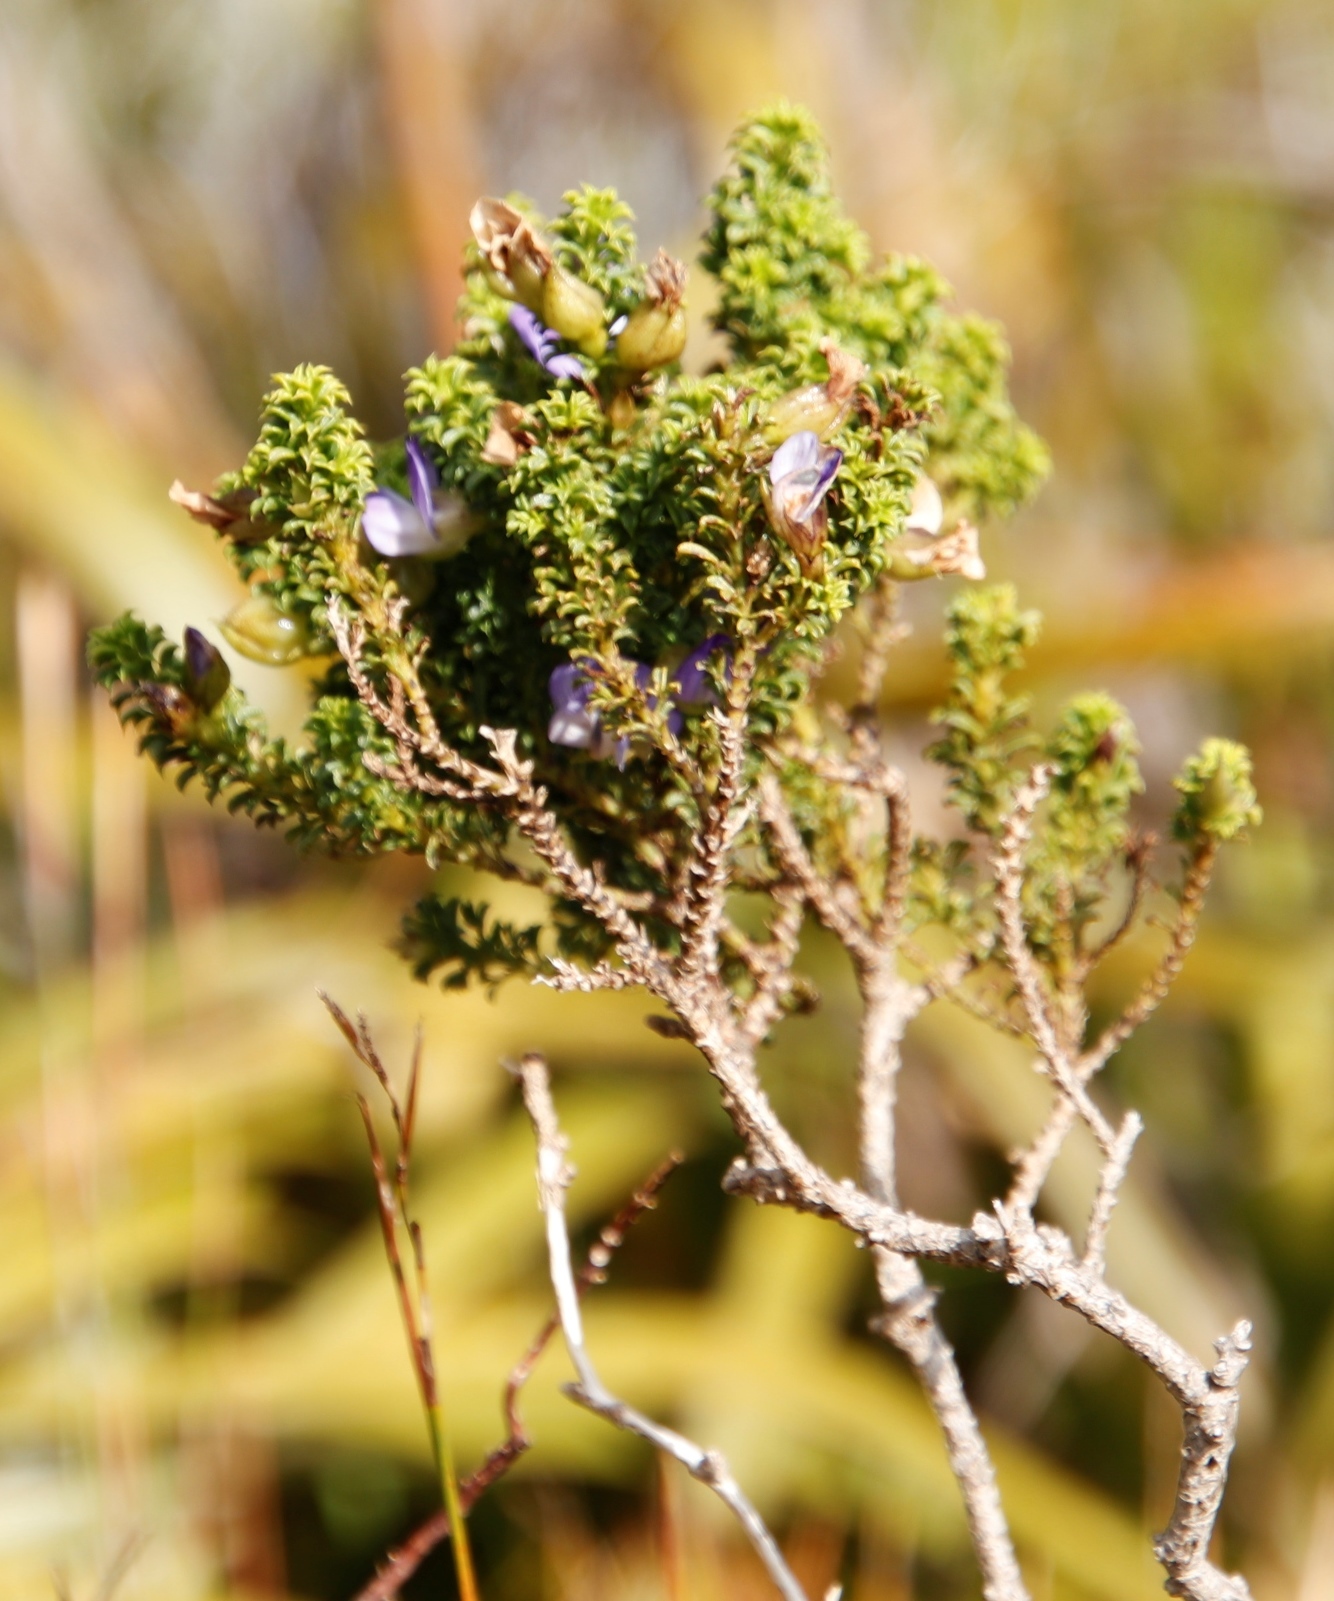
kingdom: Plantae
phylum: Tracheophyta
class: Magnoliopsida
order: Fabales
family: Fabaceae
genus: Psoralea
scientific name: Psoralea aculeata
